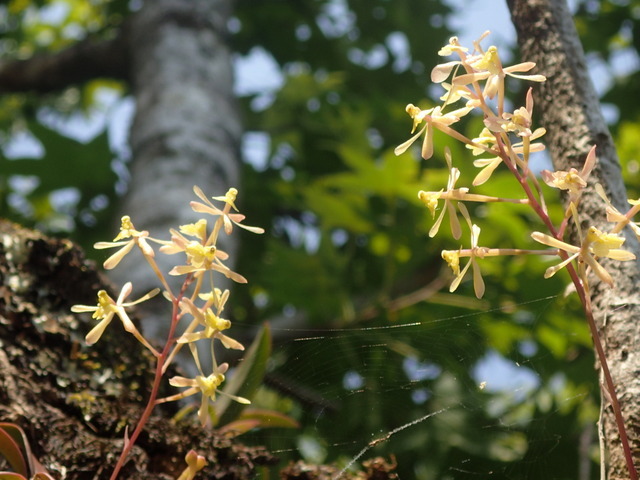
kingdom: Plantae
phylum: Tracheophyta
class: Liliopsida
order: Asparagales
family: Orchidaceae
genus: Epidendrum
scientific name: Epidendrum conopseum
